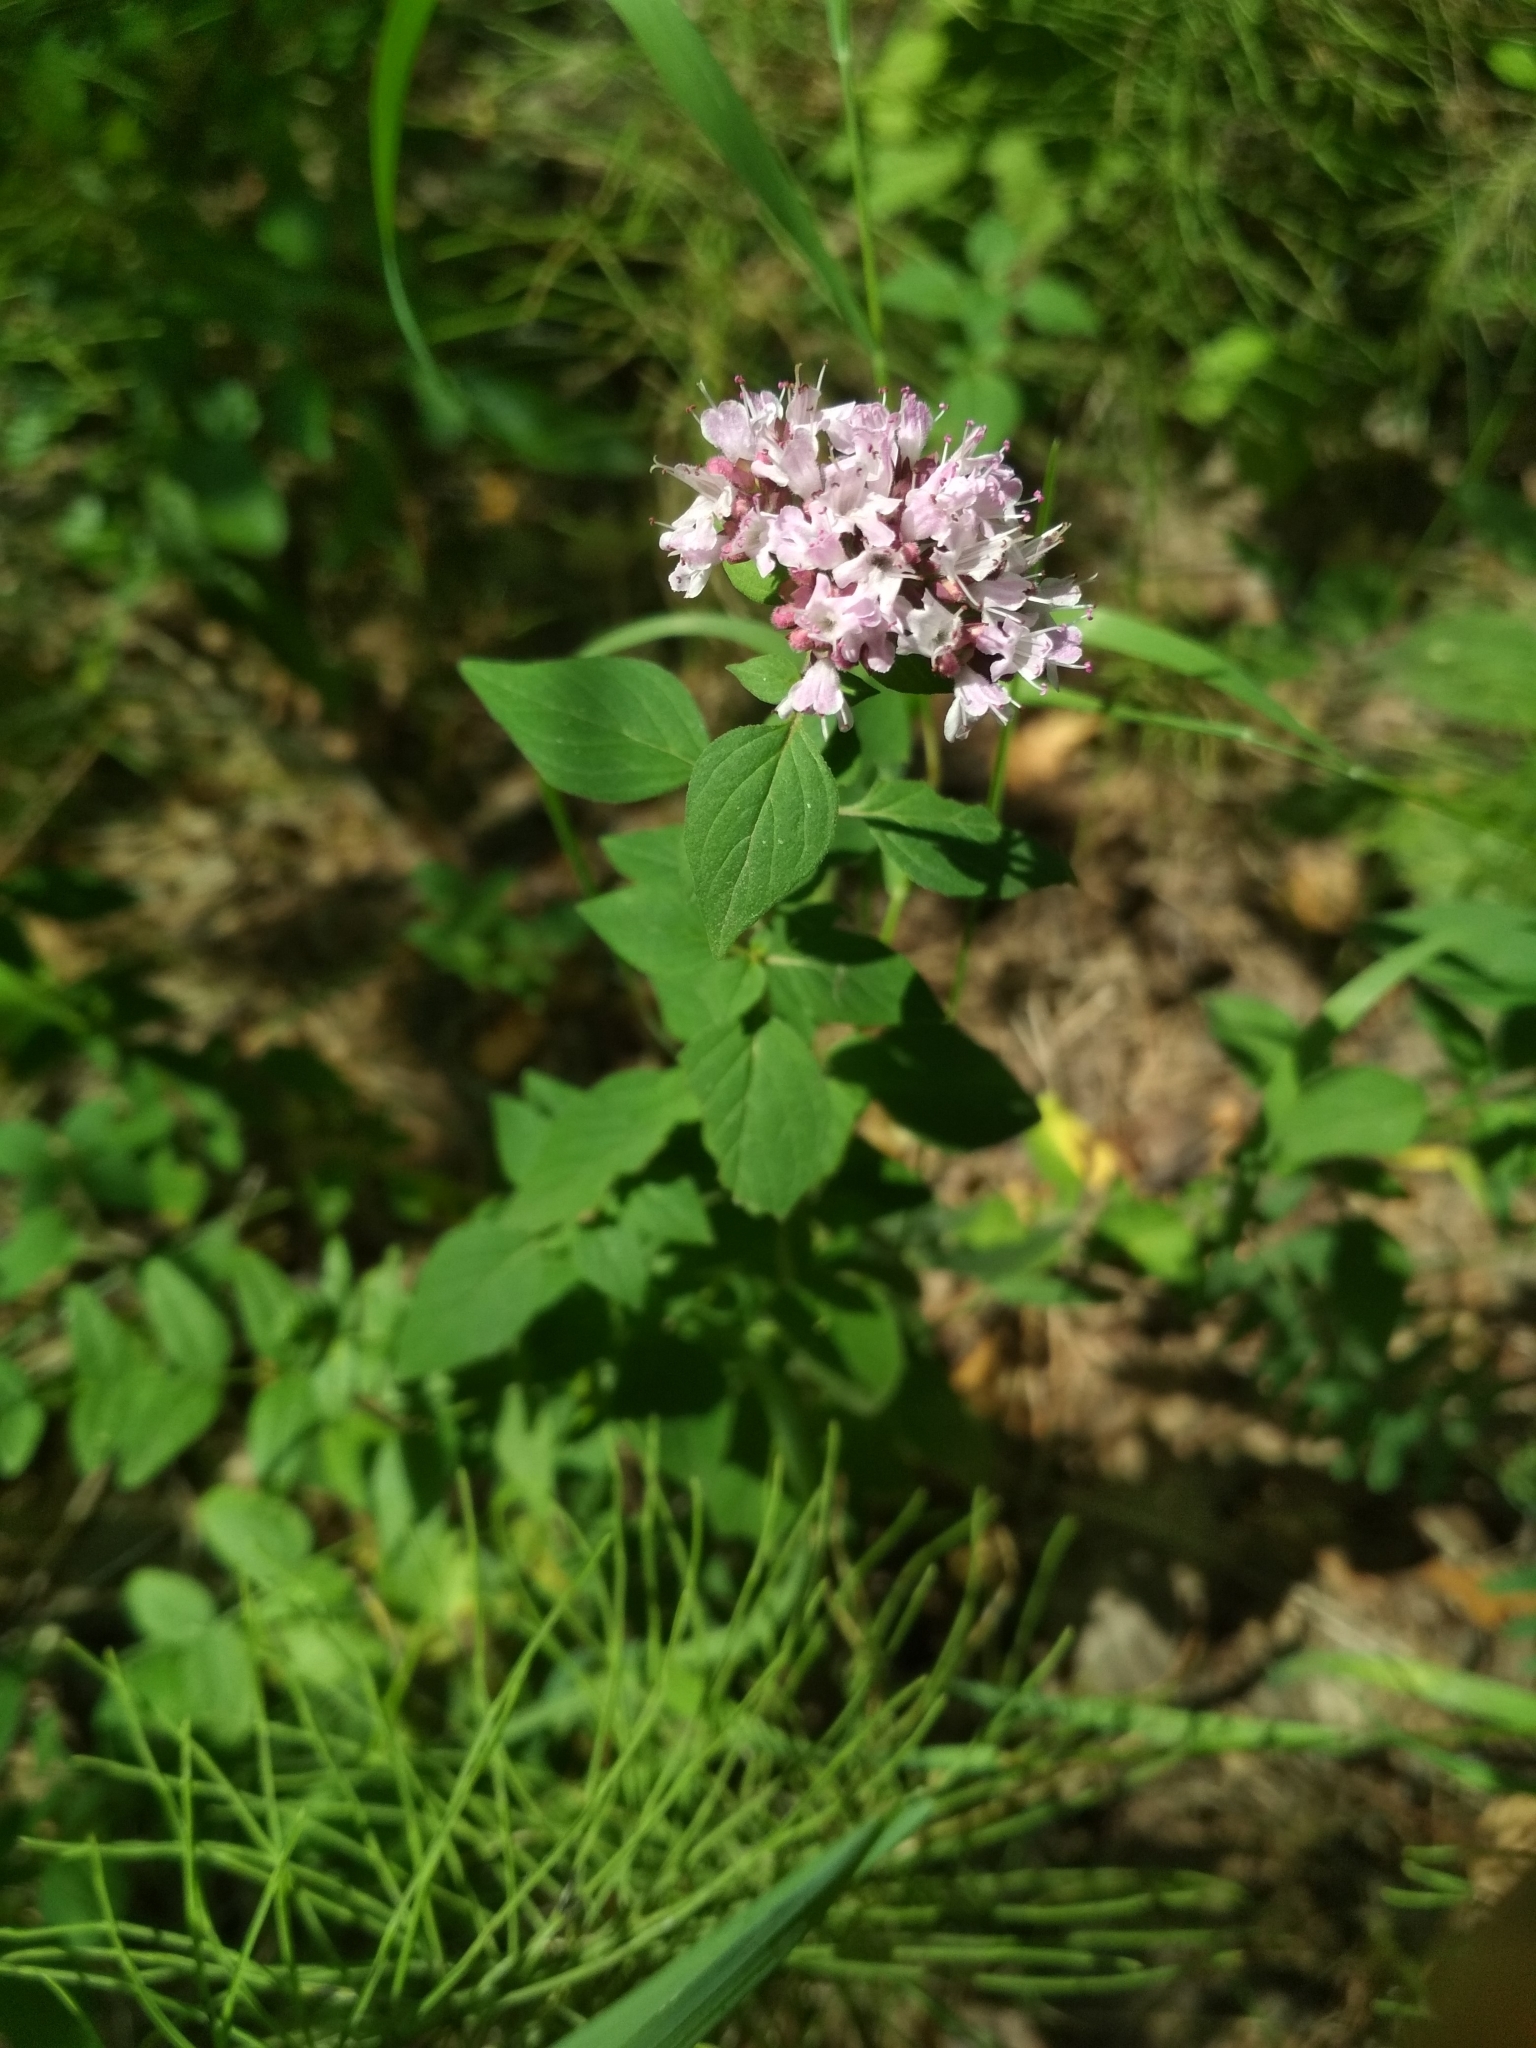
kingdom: Plantae
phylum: Tracheophyta
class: Magnoliopsida
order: Lamiales
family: Lamiaceae
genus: Origanum
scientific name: Origanum vulgare
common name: Wild marjoram
